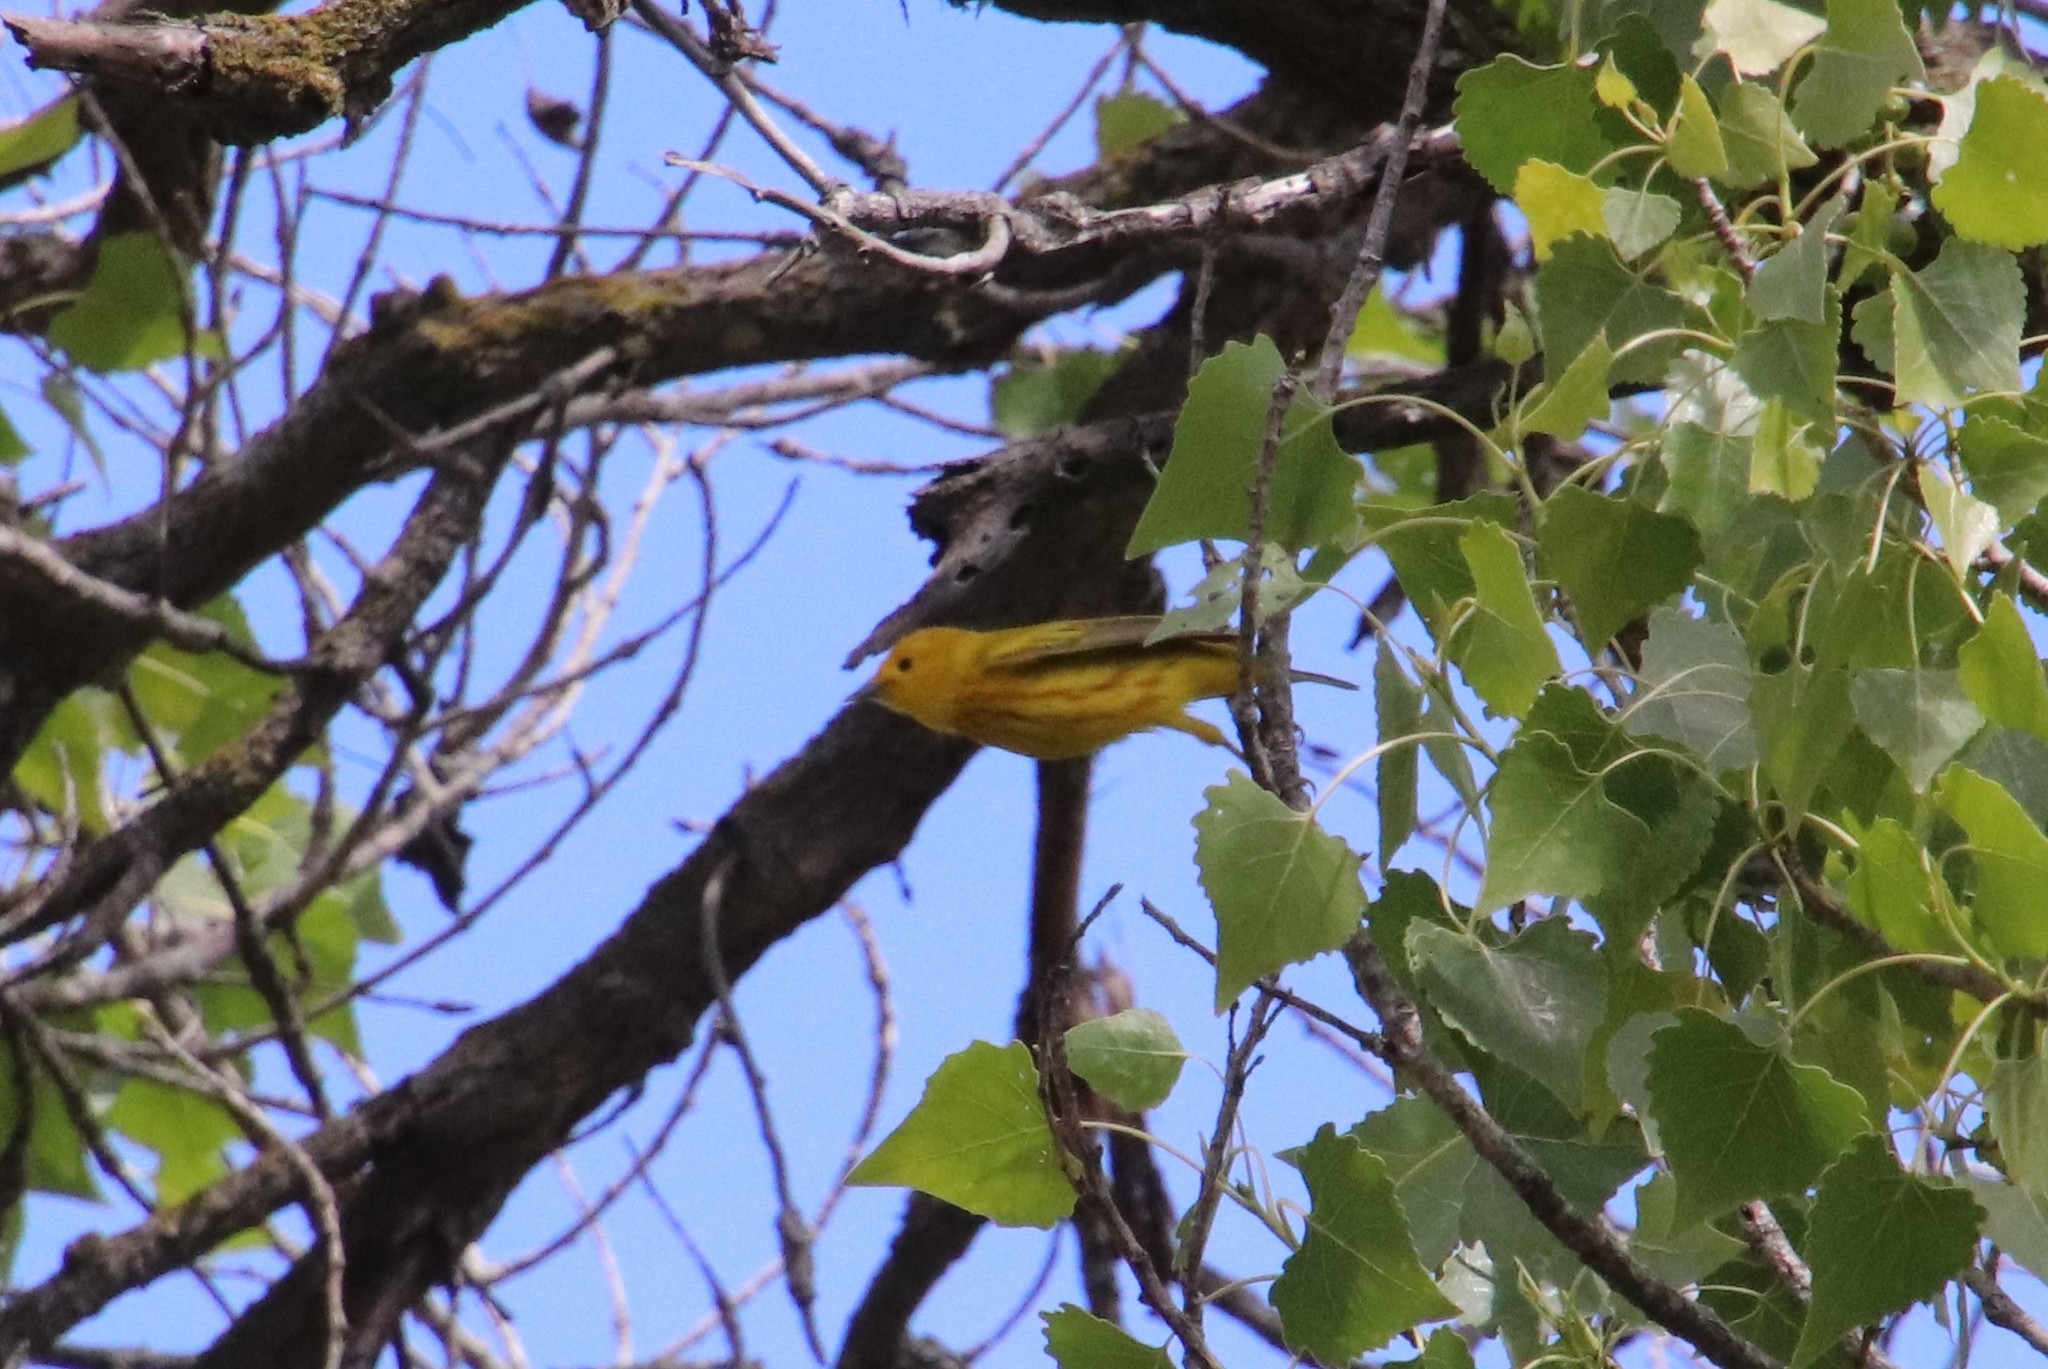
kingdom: Animalia
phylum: Chordata
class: Aves
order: Passeriformes
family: Parulidae
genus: Setophaga
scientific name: Setophaga petechia
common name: Yellow warbler
